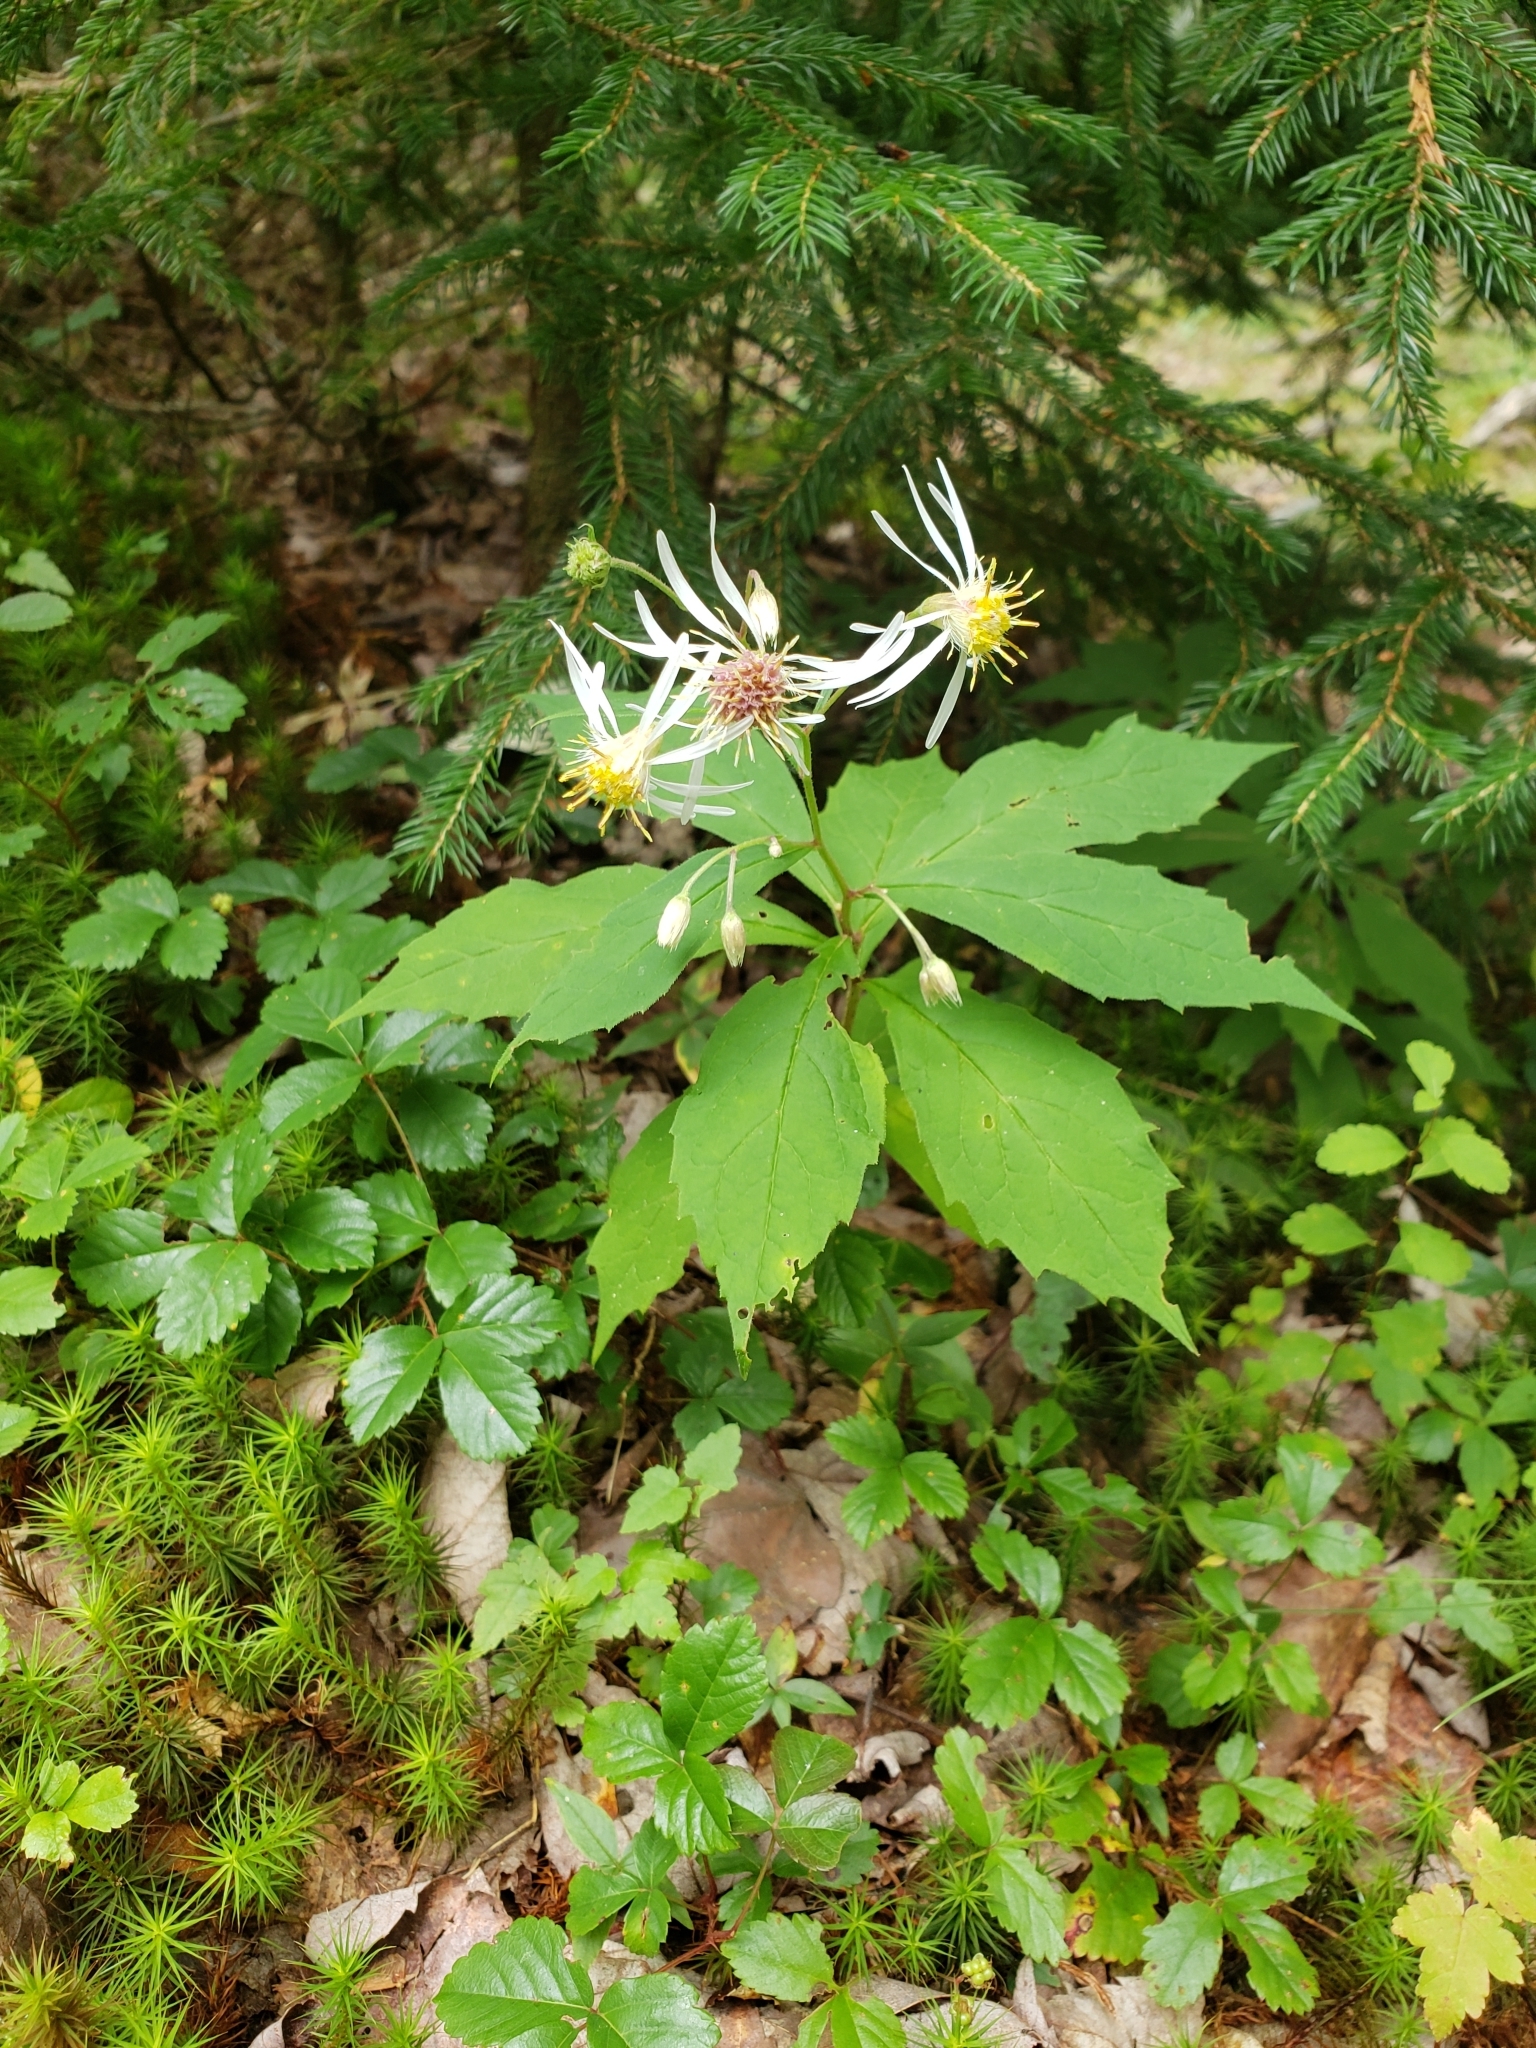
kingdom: Plantae
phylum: Tracheophyta
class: Magnoliopsida
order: Asterales
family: Asteraceae
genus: Oclemena
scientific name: Oclemena acuminata
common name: Mountain aster
